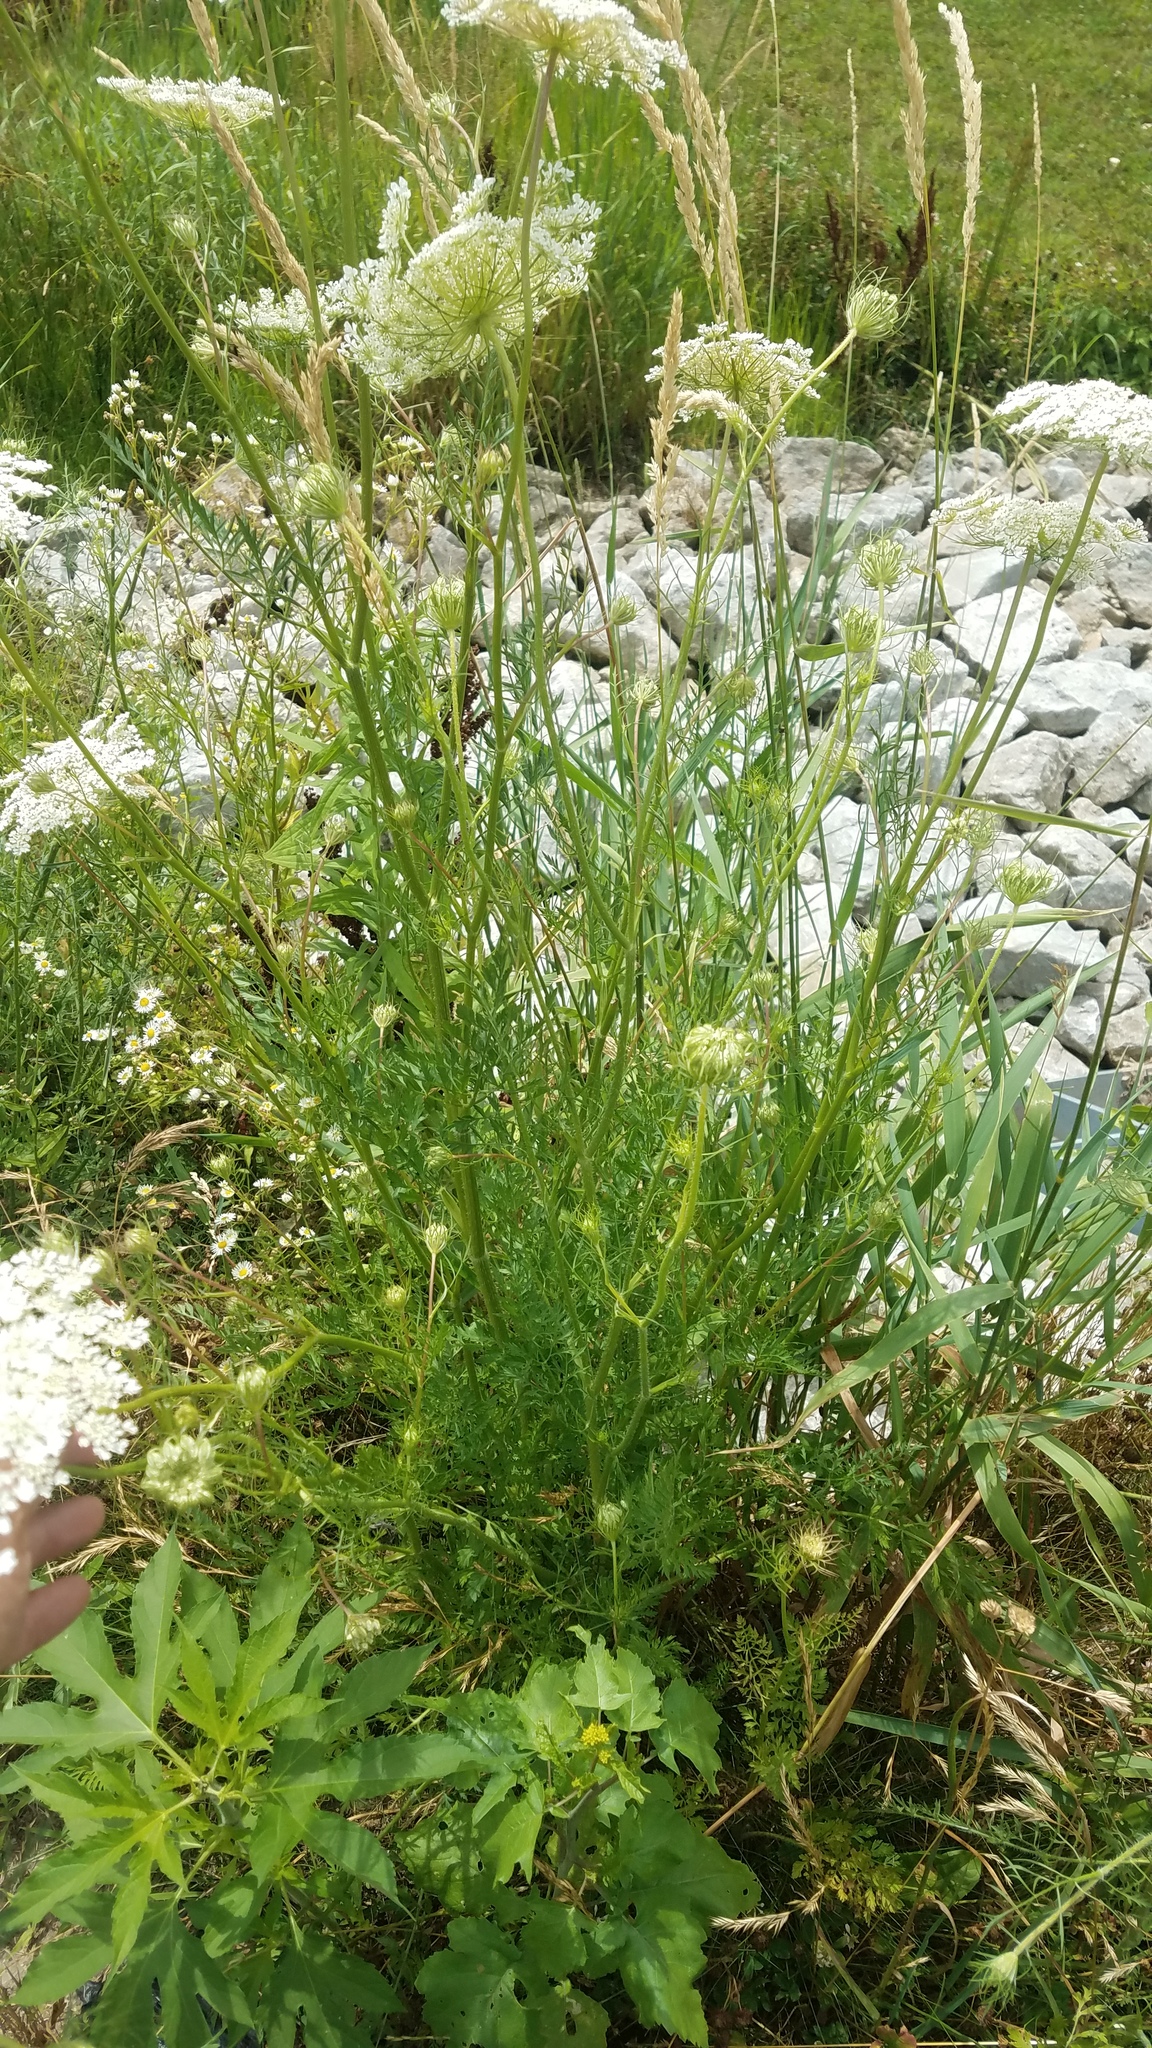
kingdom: Plantae
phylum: Tracheophyta
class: Magnoliopsida
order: Apiales
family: Apiaceae
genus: Daucus
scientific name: Daucus carota
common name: Wild carrot
